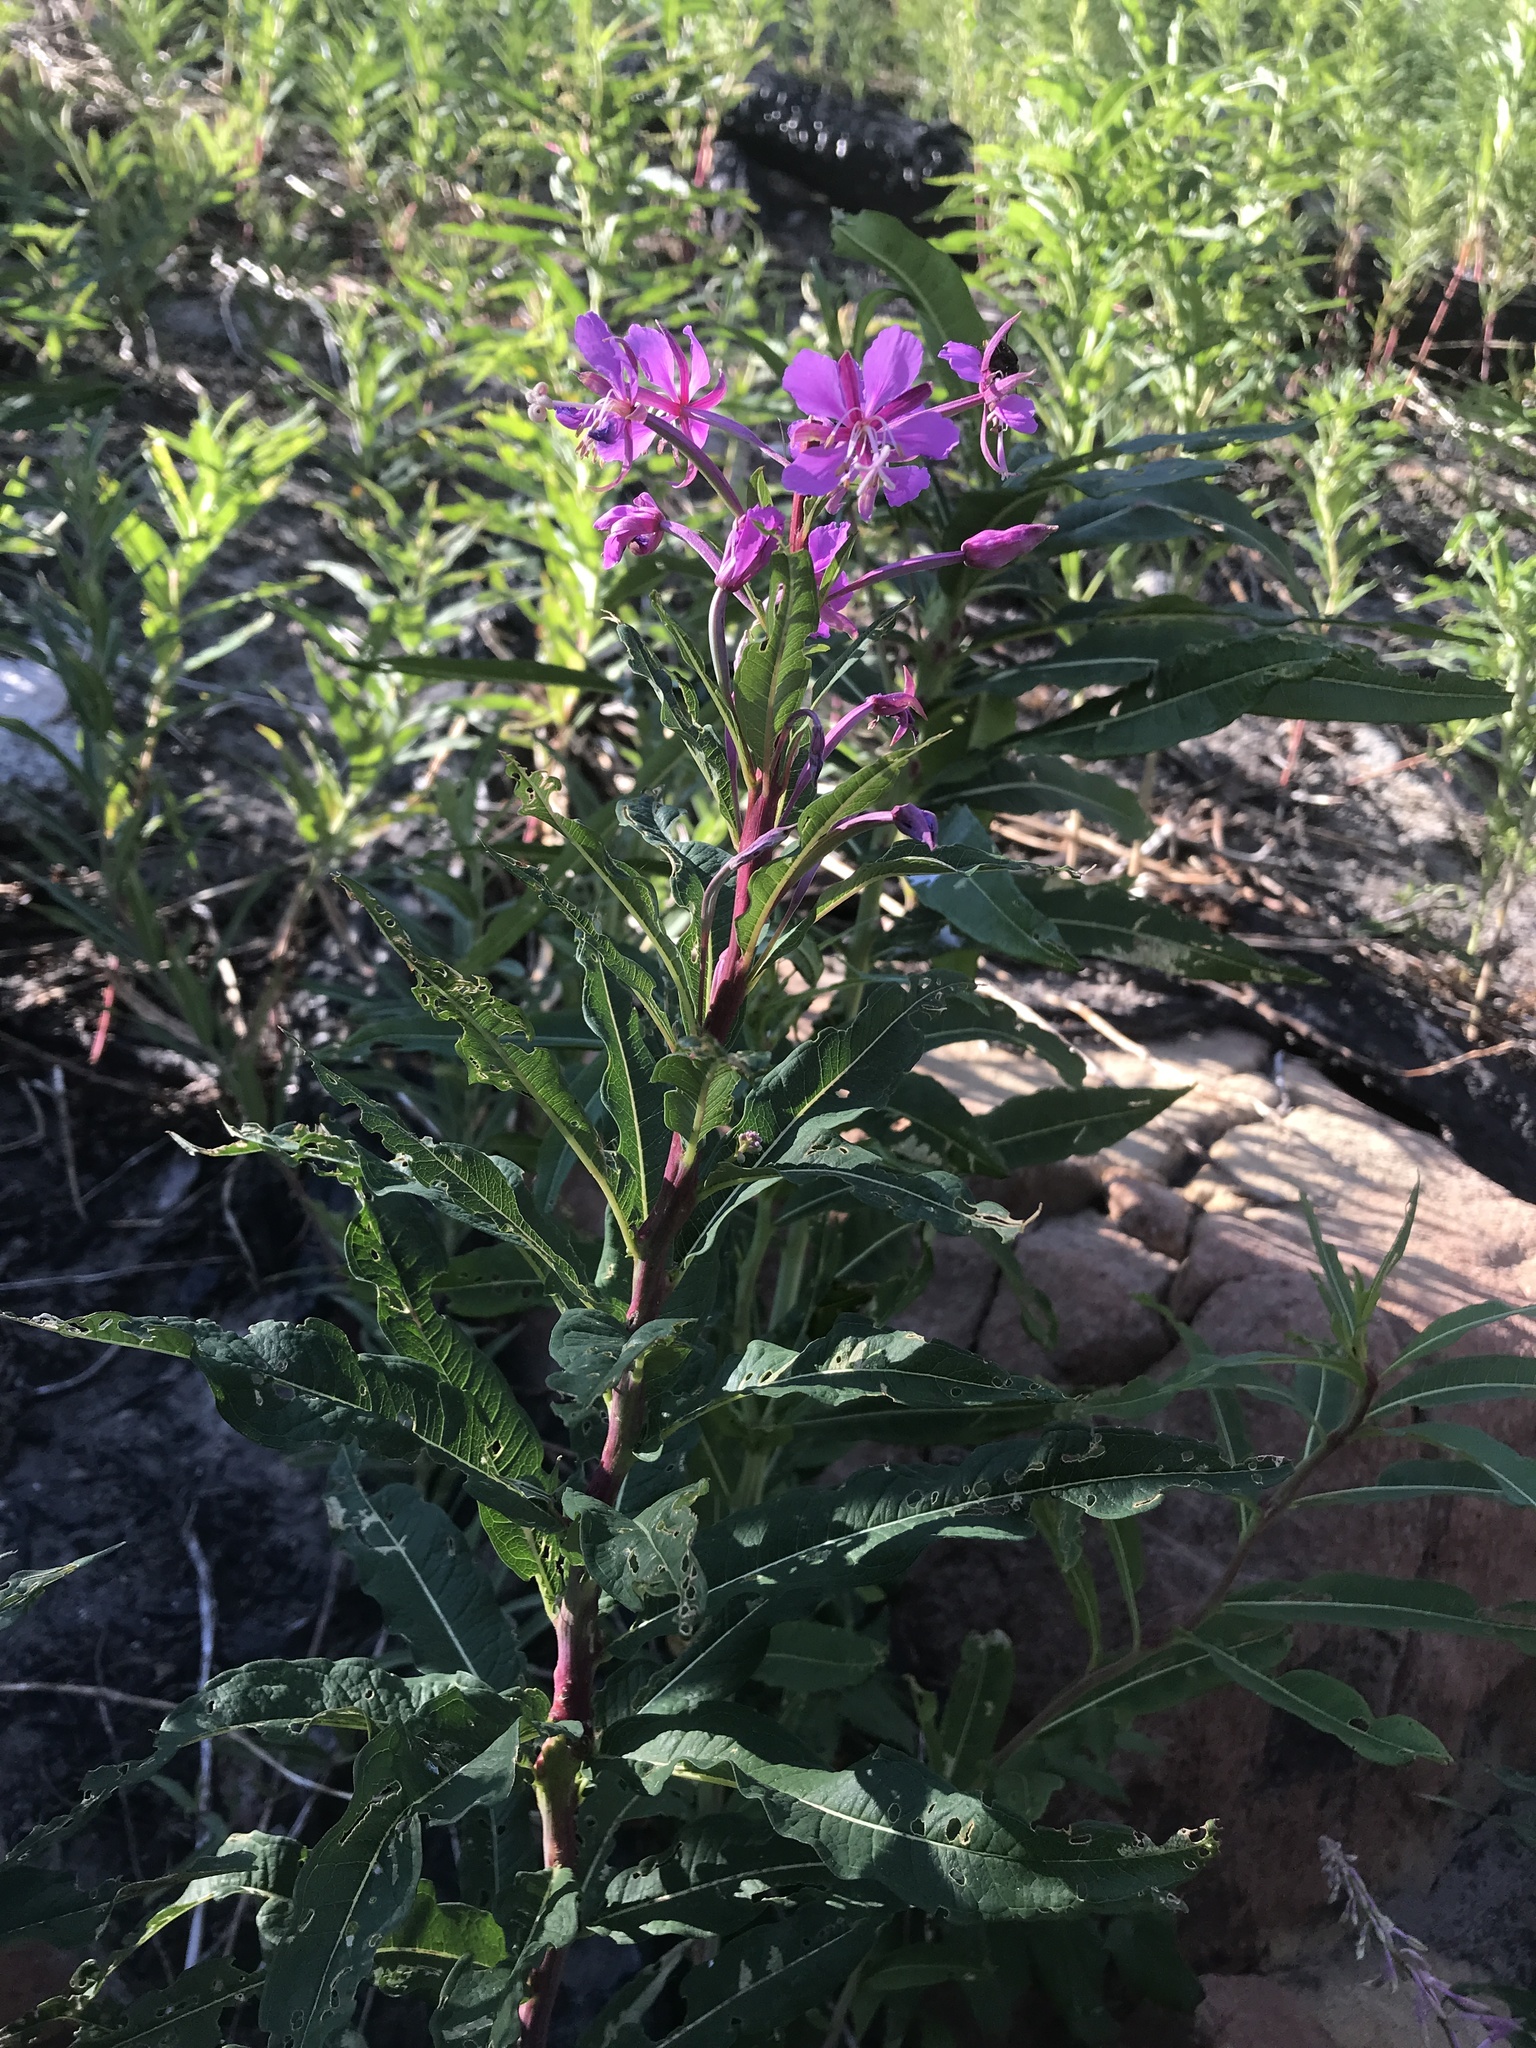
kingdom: Plantae
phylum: Tracheophyta
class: Magnoliopsida
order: Myrtales
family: Onagraceae
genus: Chamaenerion
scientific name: Chamaenerion angustifolium
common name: Fireweed
